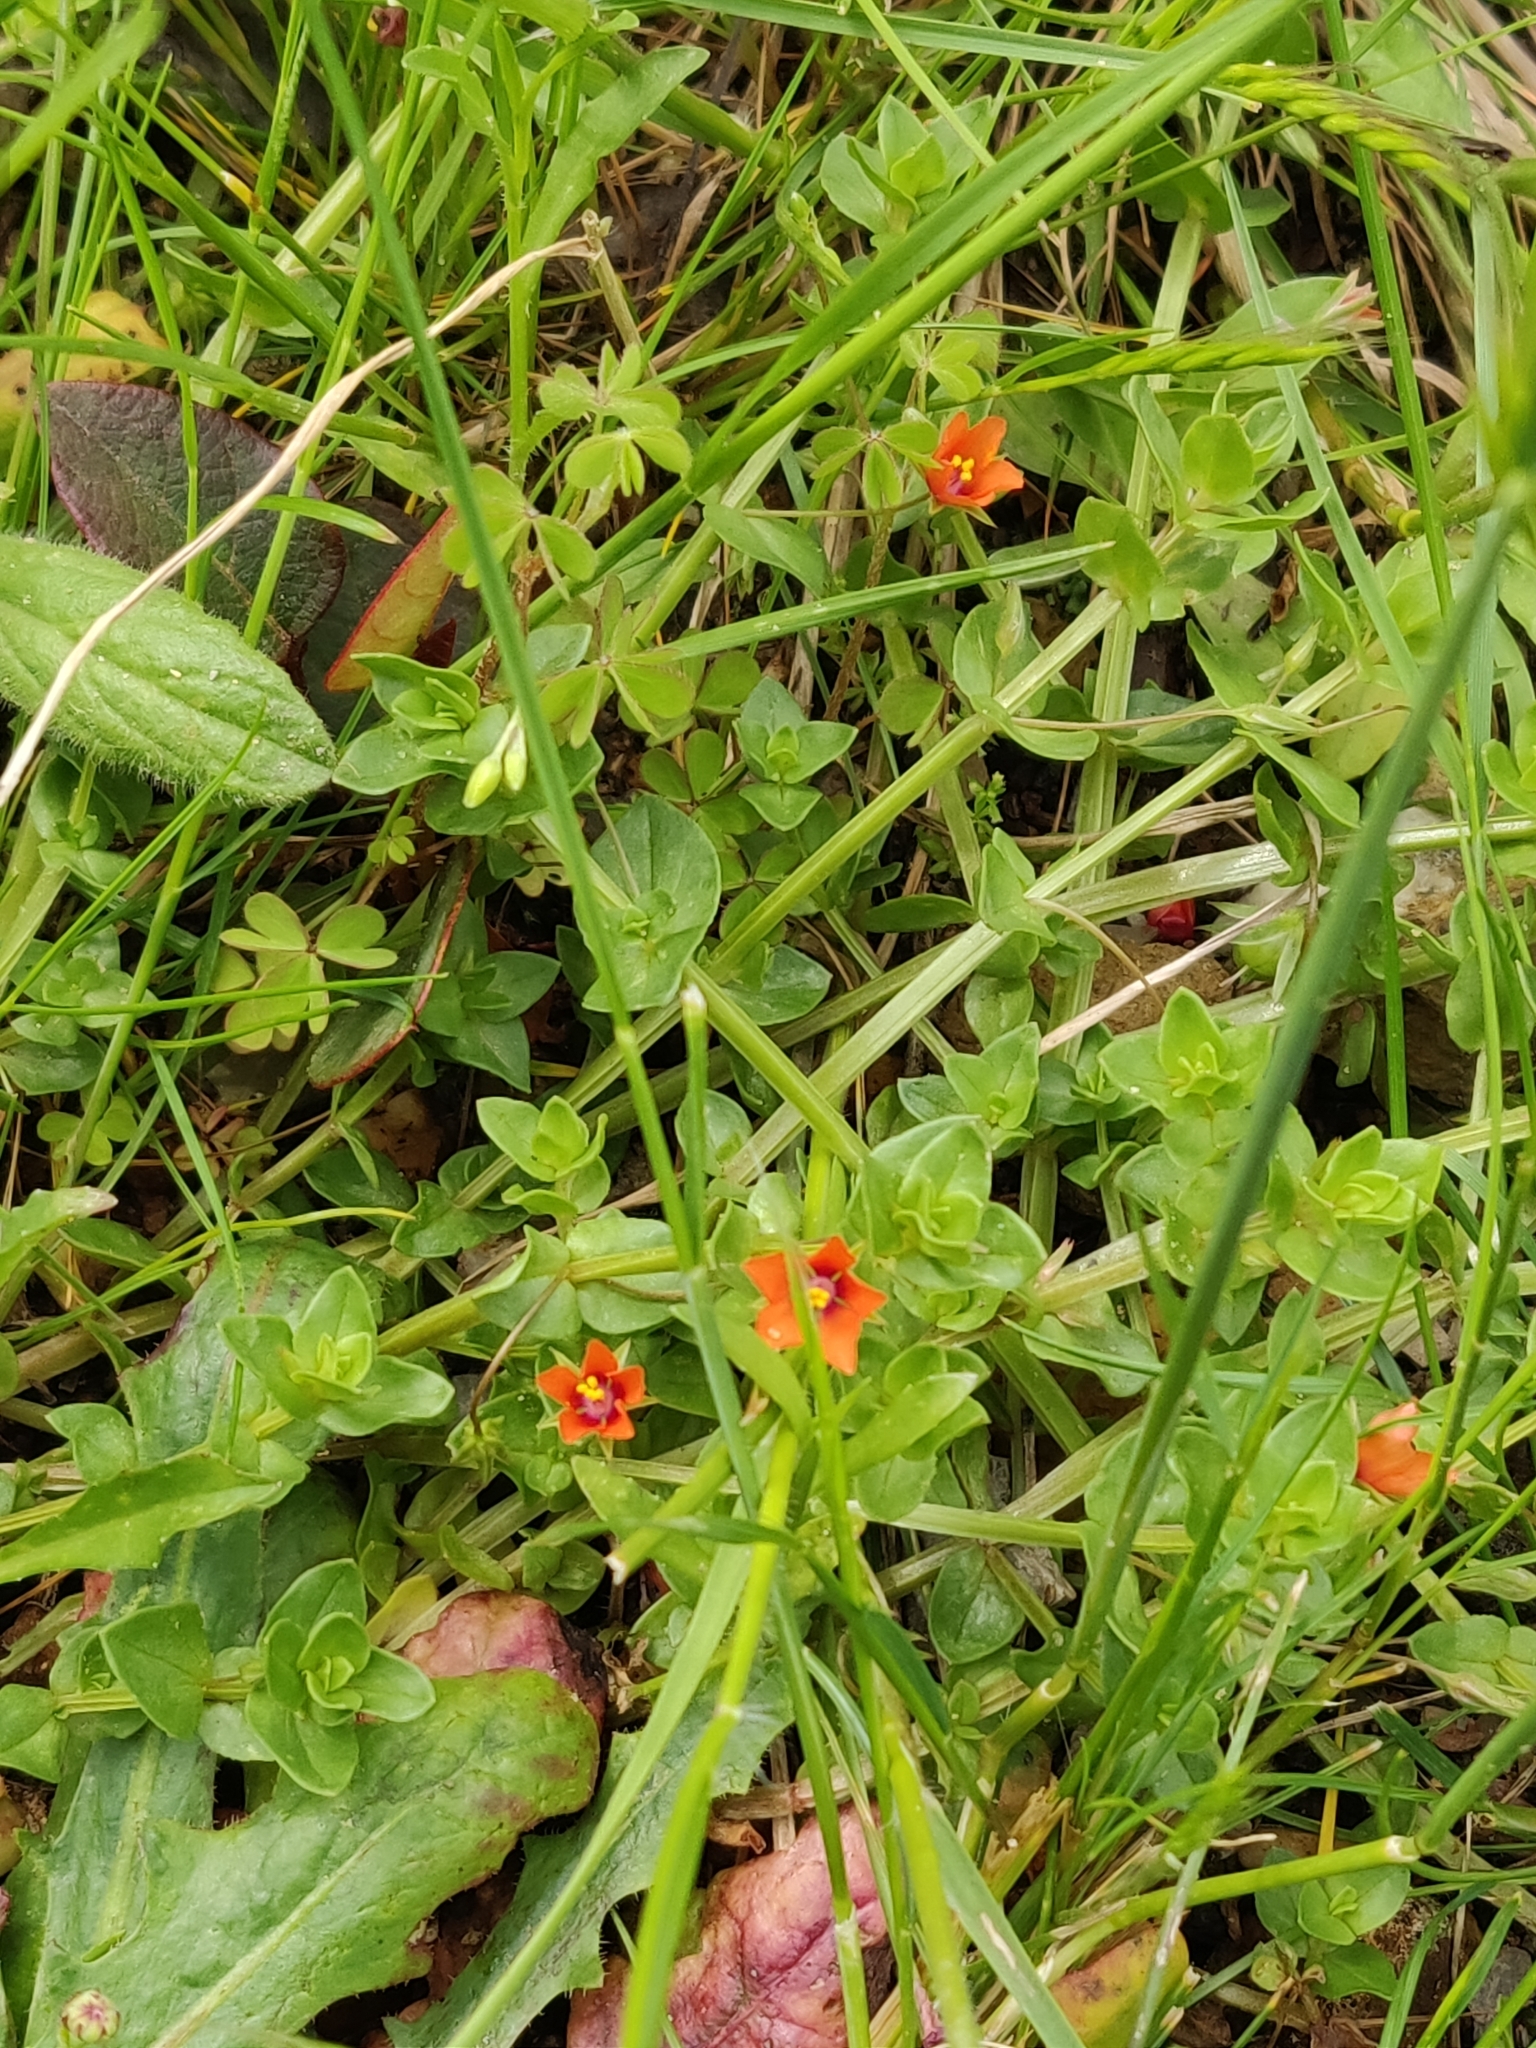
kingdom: Plantae
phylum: Tracheophyta
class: Magnoliopsida
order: Ericales
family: Primulaceae
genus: Lysimachia
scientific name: Lysimachia arvensis
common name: Scarlet pimpernel
